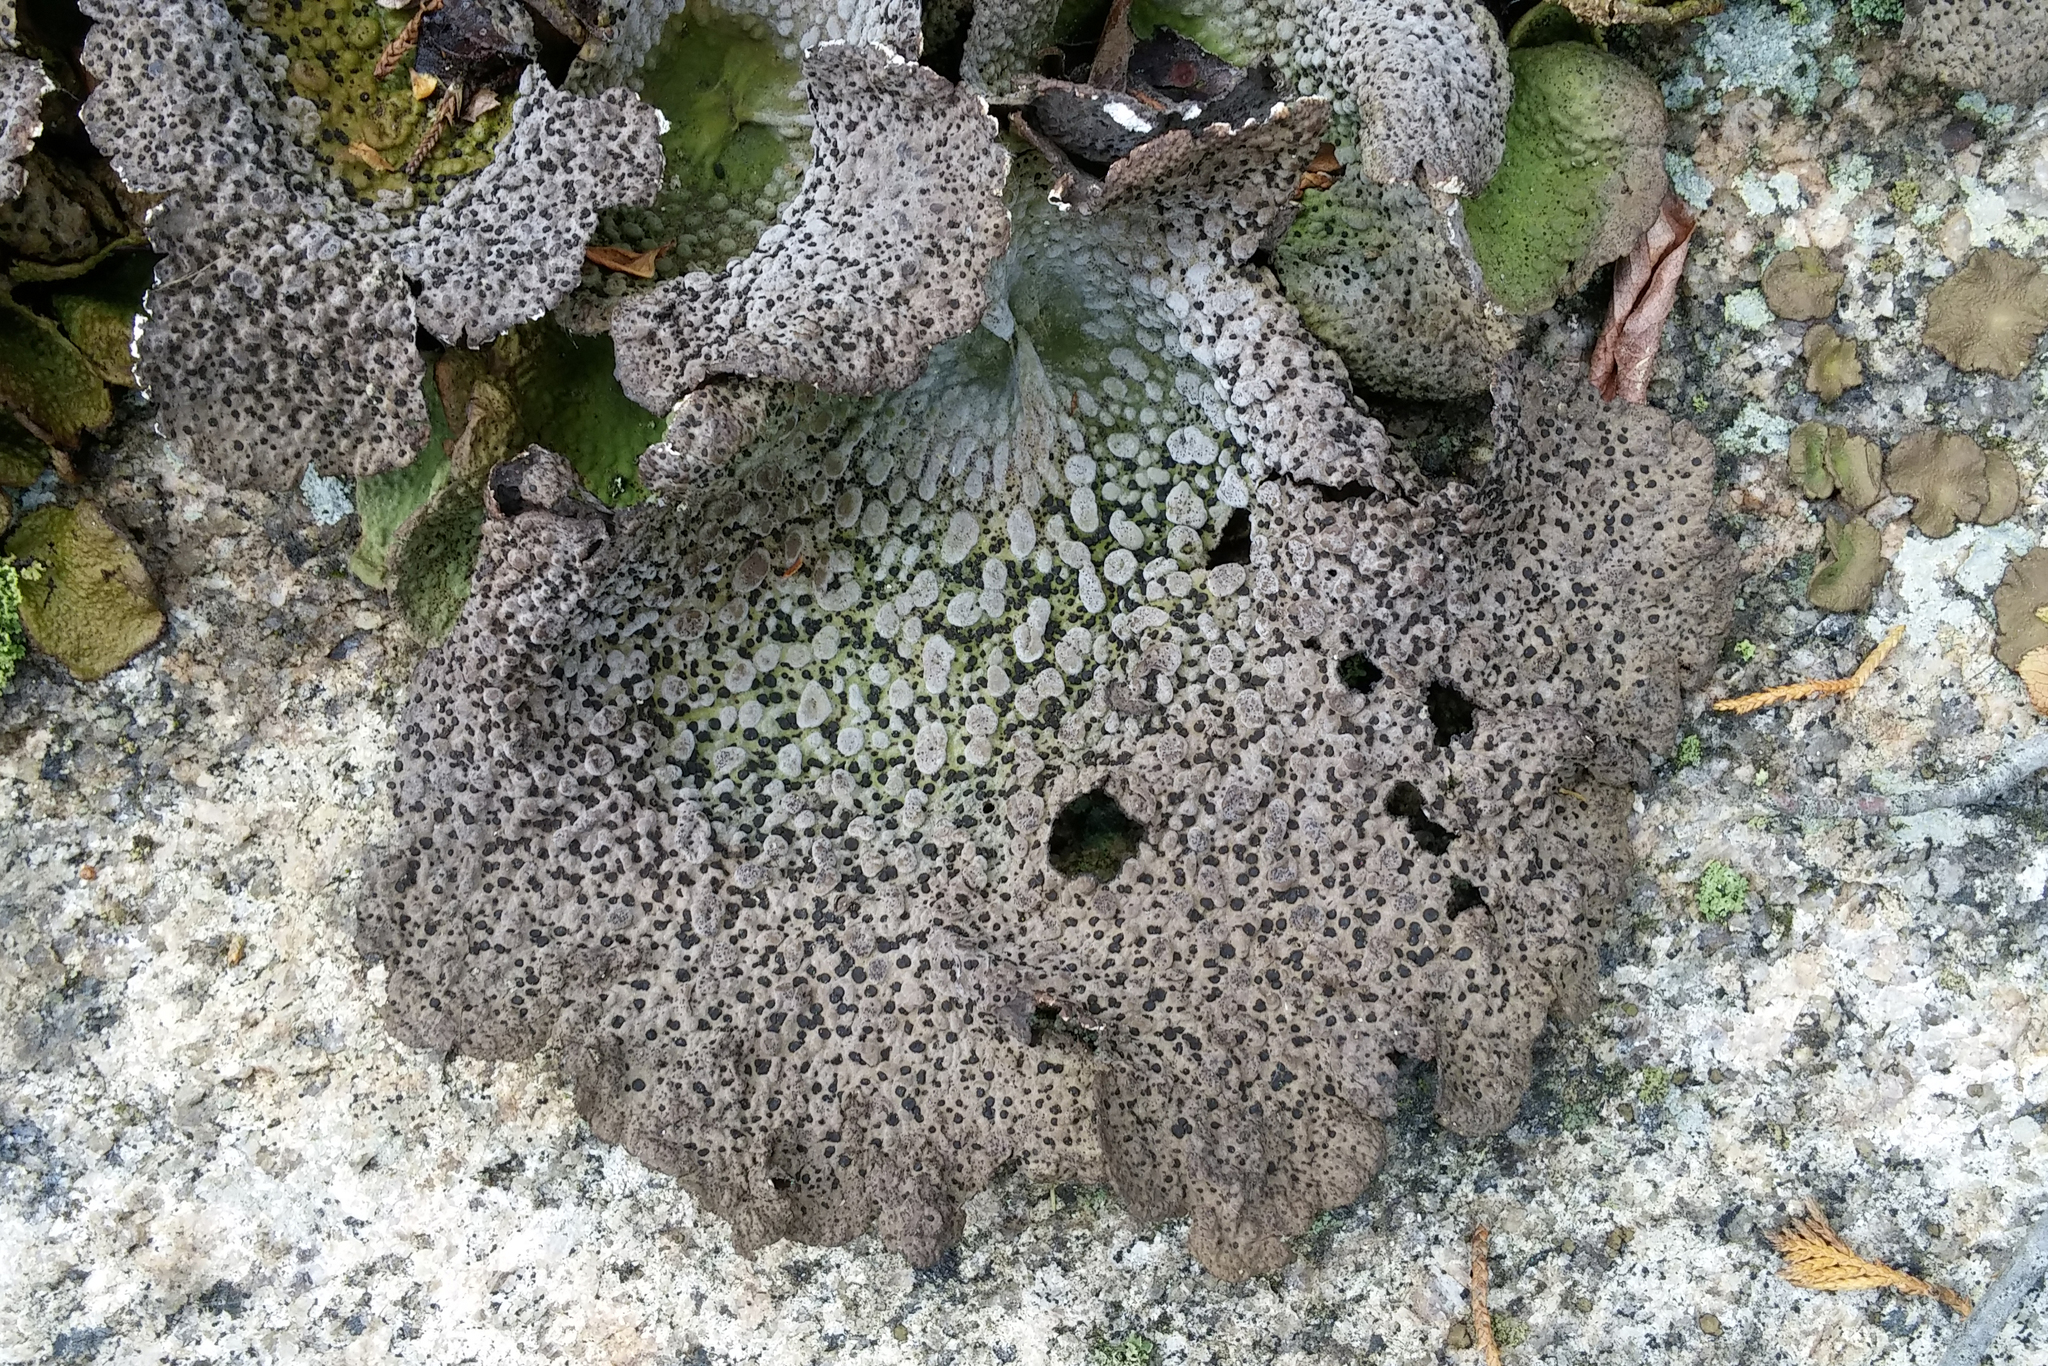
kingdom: Fungi
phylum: Ascomycota
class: Lecanoromycetes
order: Umbilicariales
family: Umbilicariaceae
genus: Lasallia
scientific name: Lasallia papulosa
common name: Common toadskin lichen
